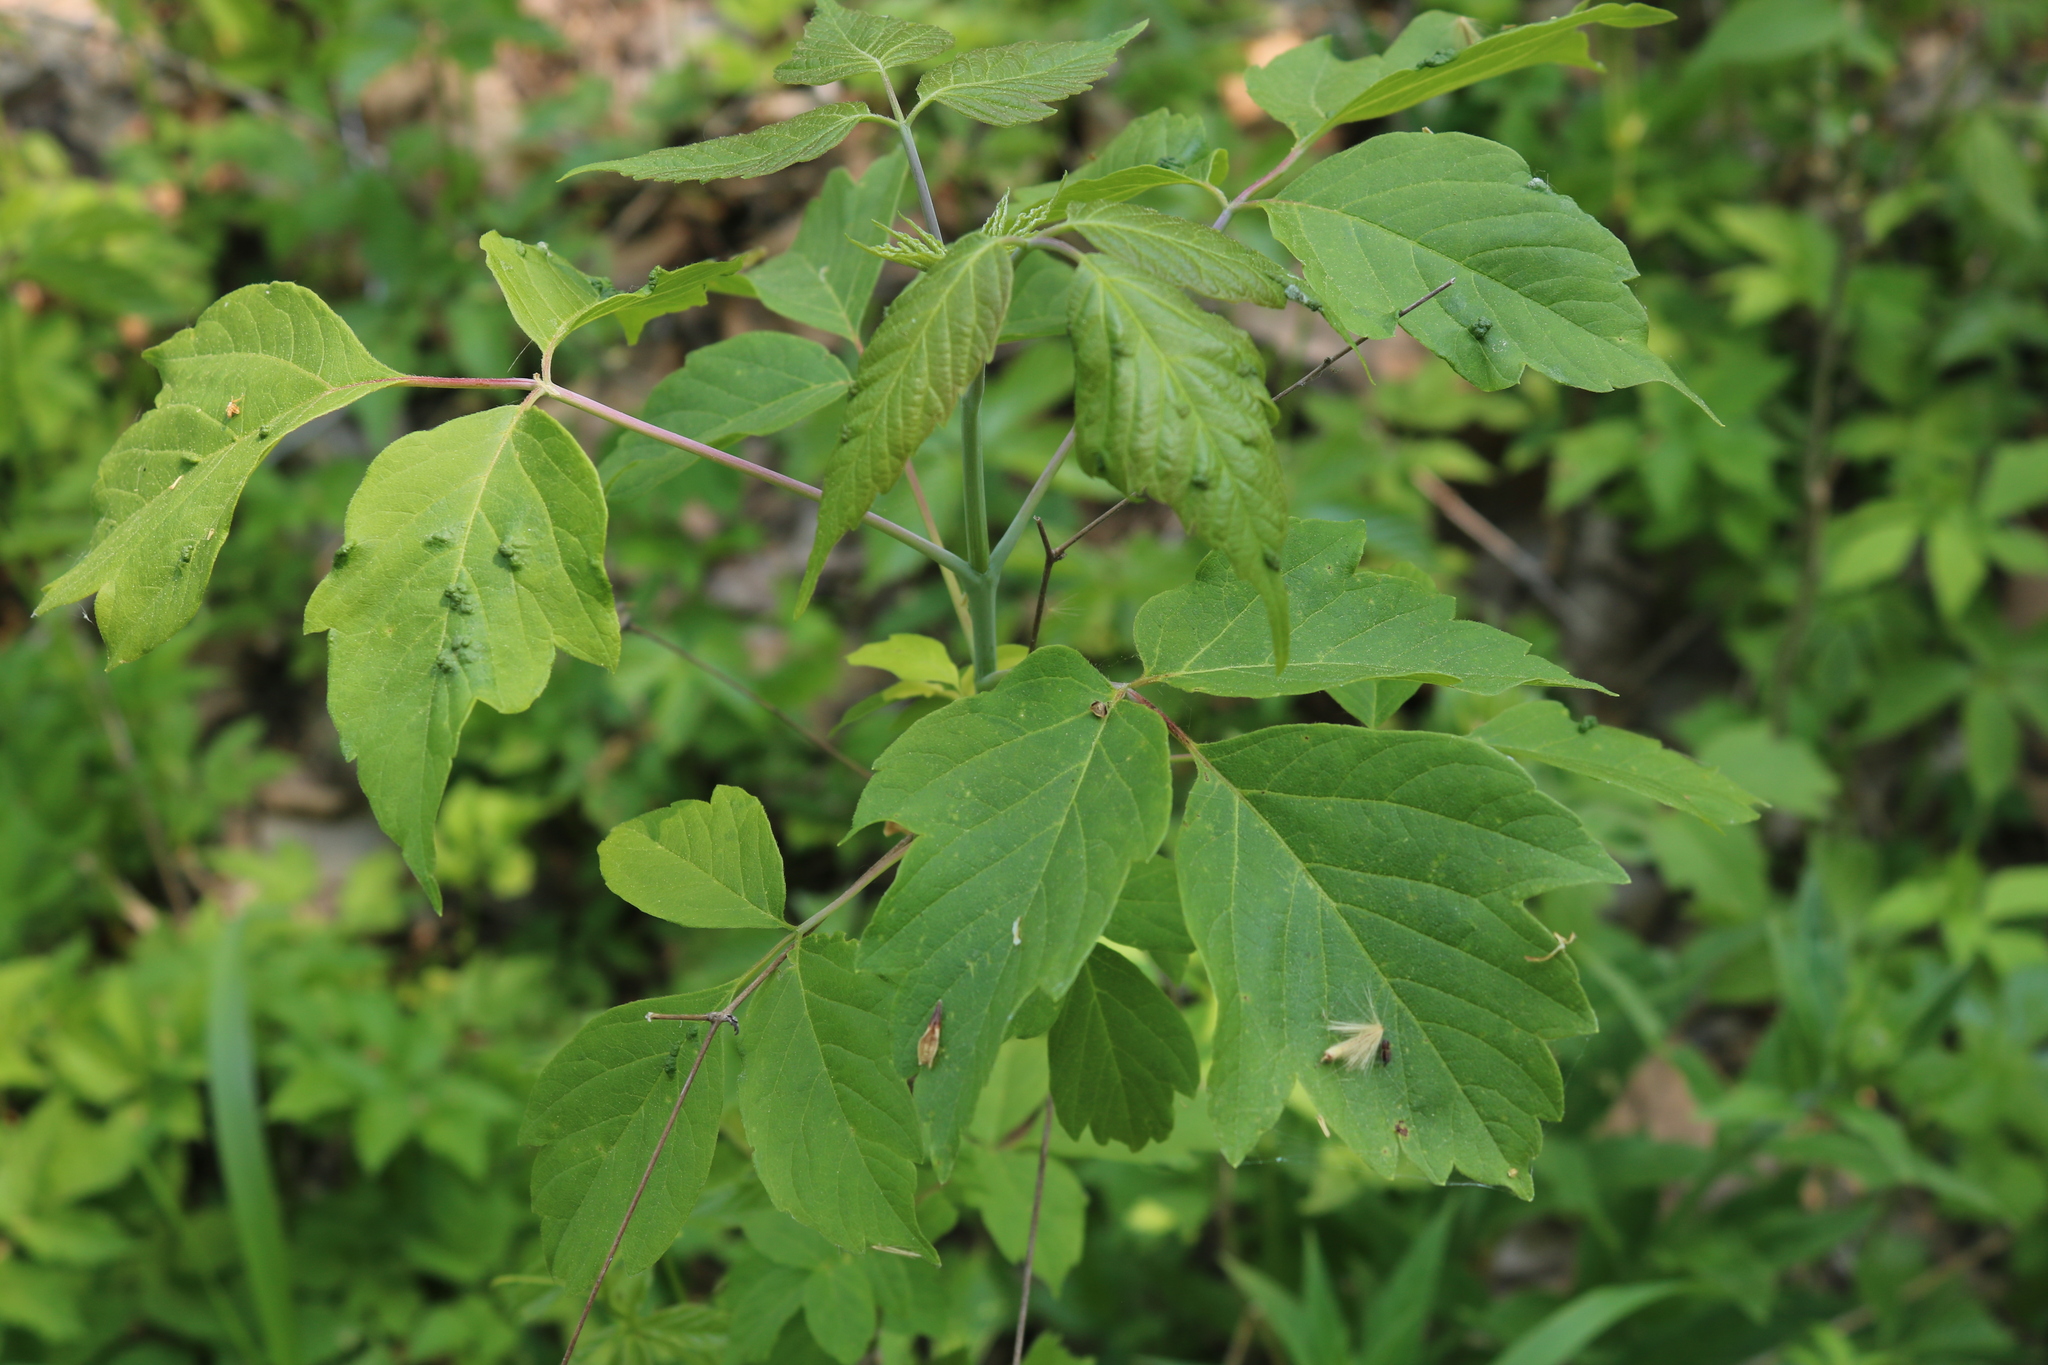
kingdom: Plantae
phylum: Tracheophyta
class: Magnoliopsida
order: Sapindales
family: Sapindaceae
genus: Acer
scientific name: Acer negundo
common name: Ashleaf maple
